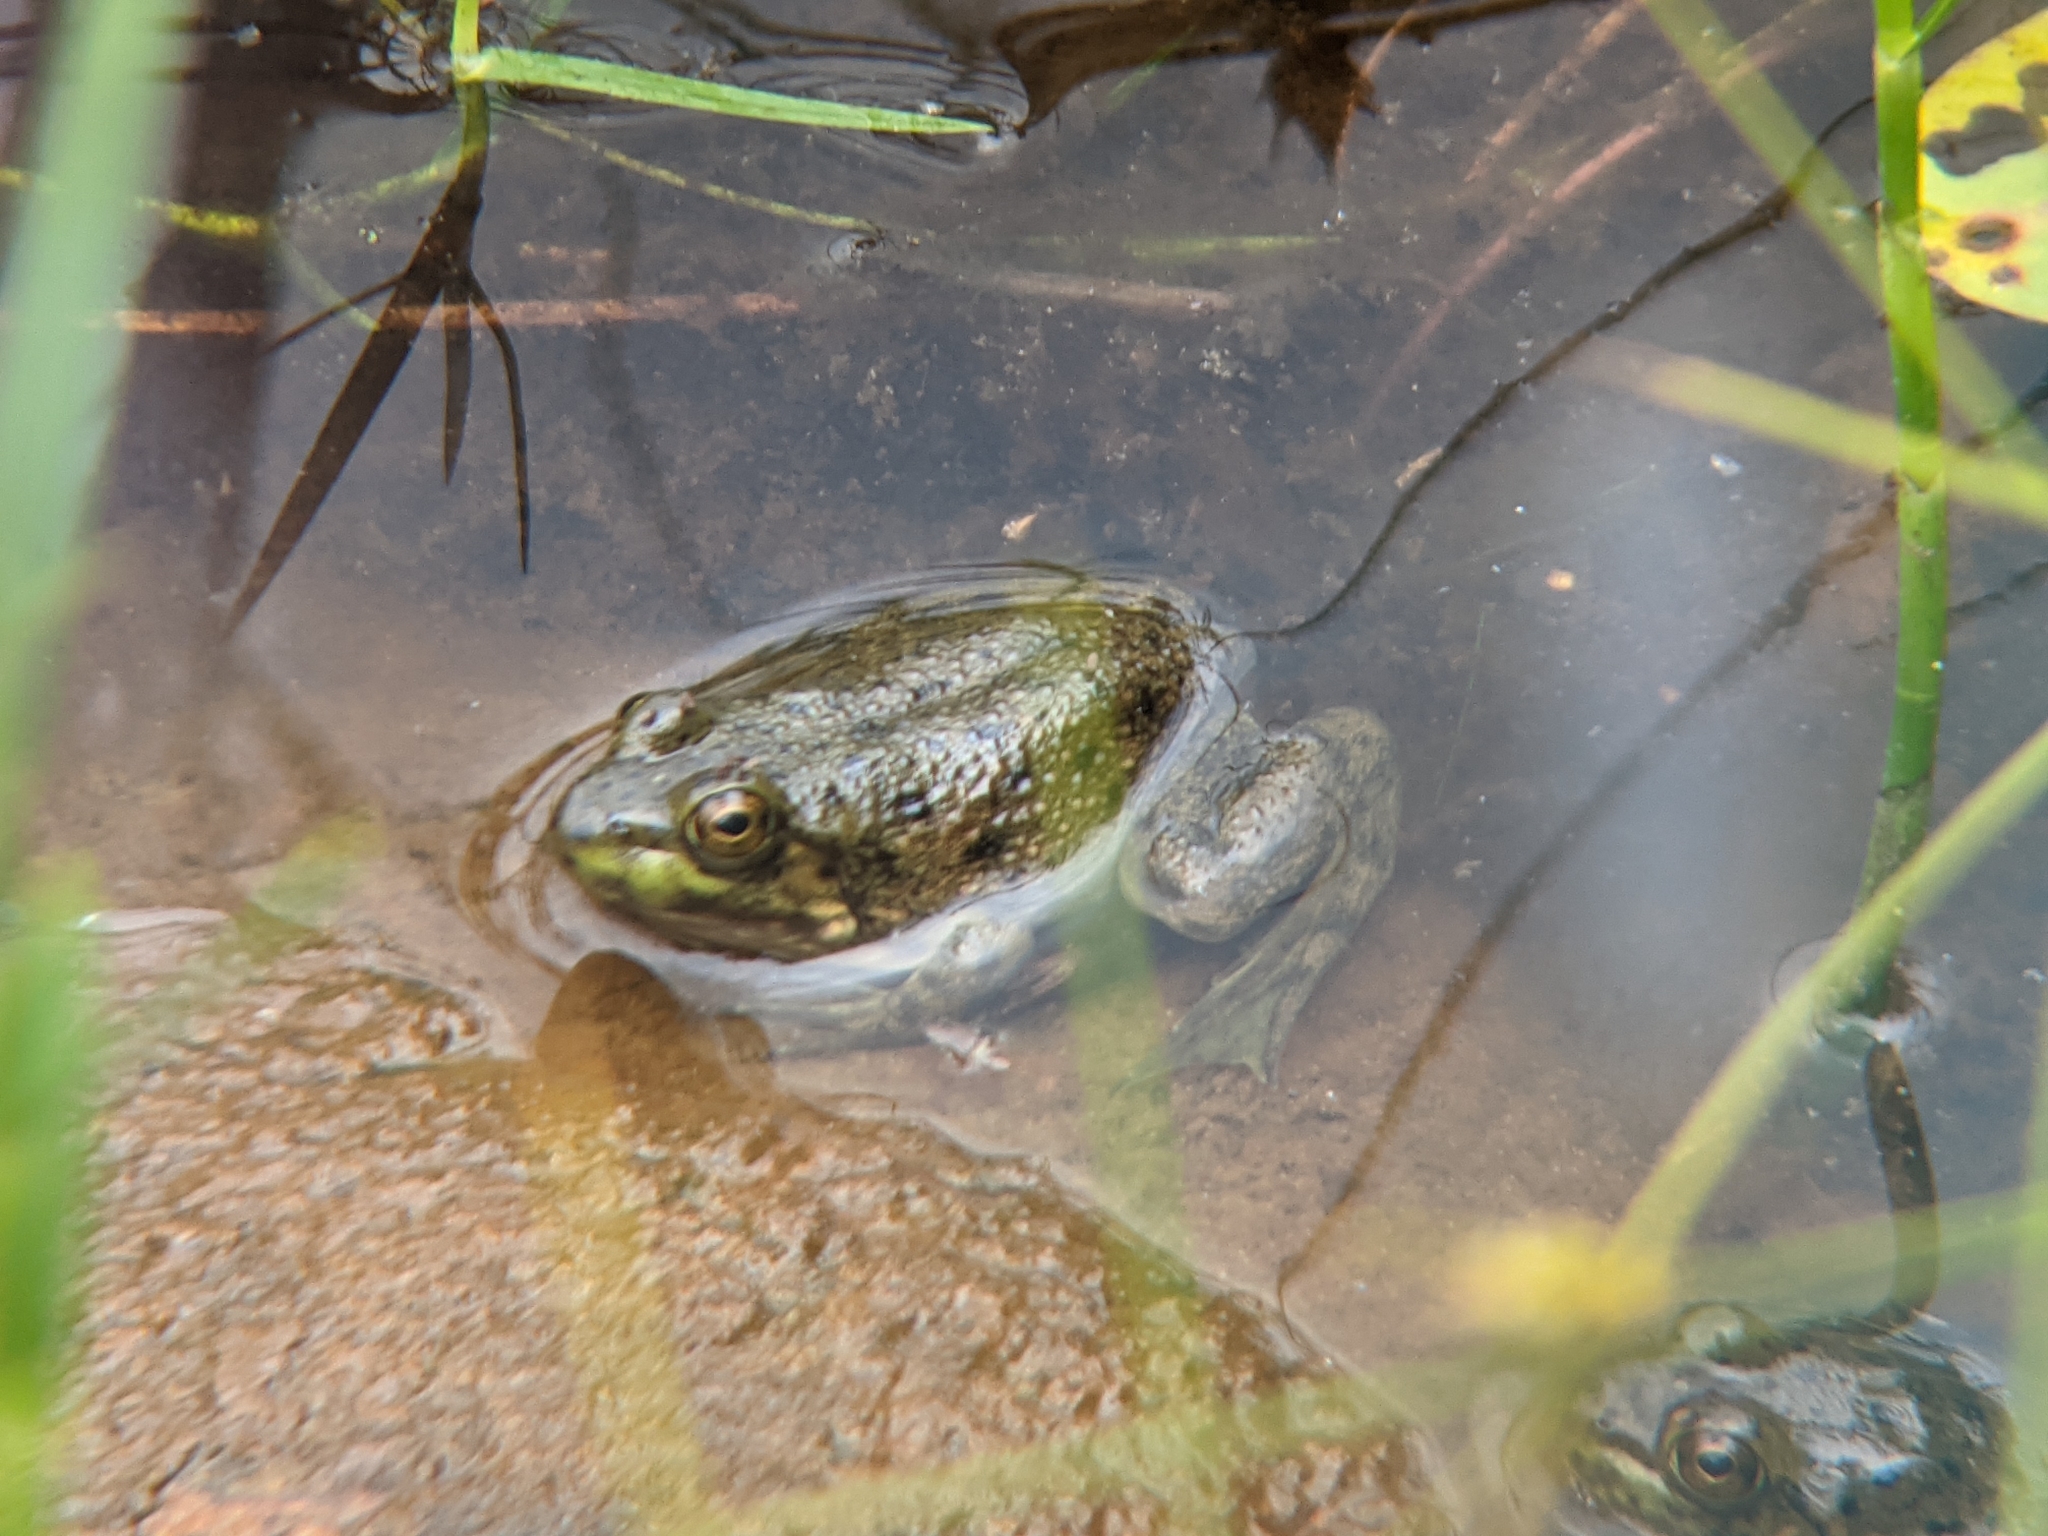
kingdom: Animalia
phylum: Chordata
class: Amphibia
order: Anura
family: Ranidae
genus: Lithobates
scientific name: Lithobates catesbeianus
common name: American bullfrog
